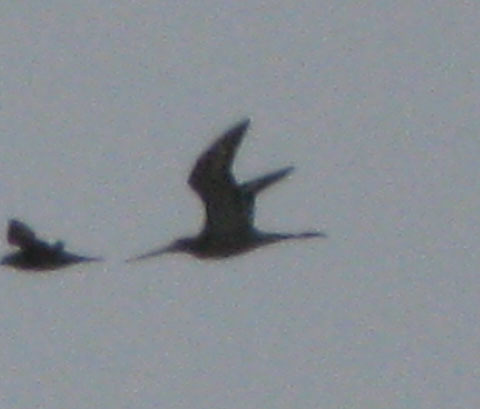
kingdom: Animalia
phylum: Chordata
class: Aves
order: Charadriiformes
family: Scolopacidae
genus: Limosa
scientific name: Limosa limosa
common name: Black-tailed godwit
